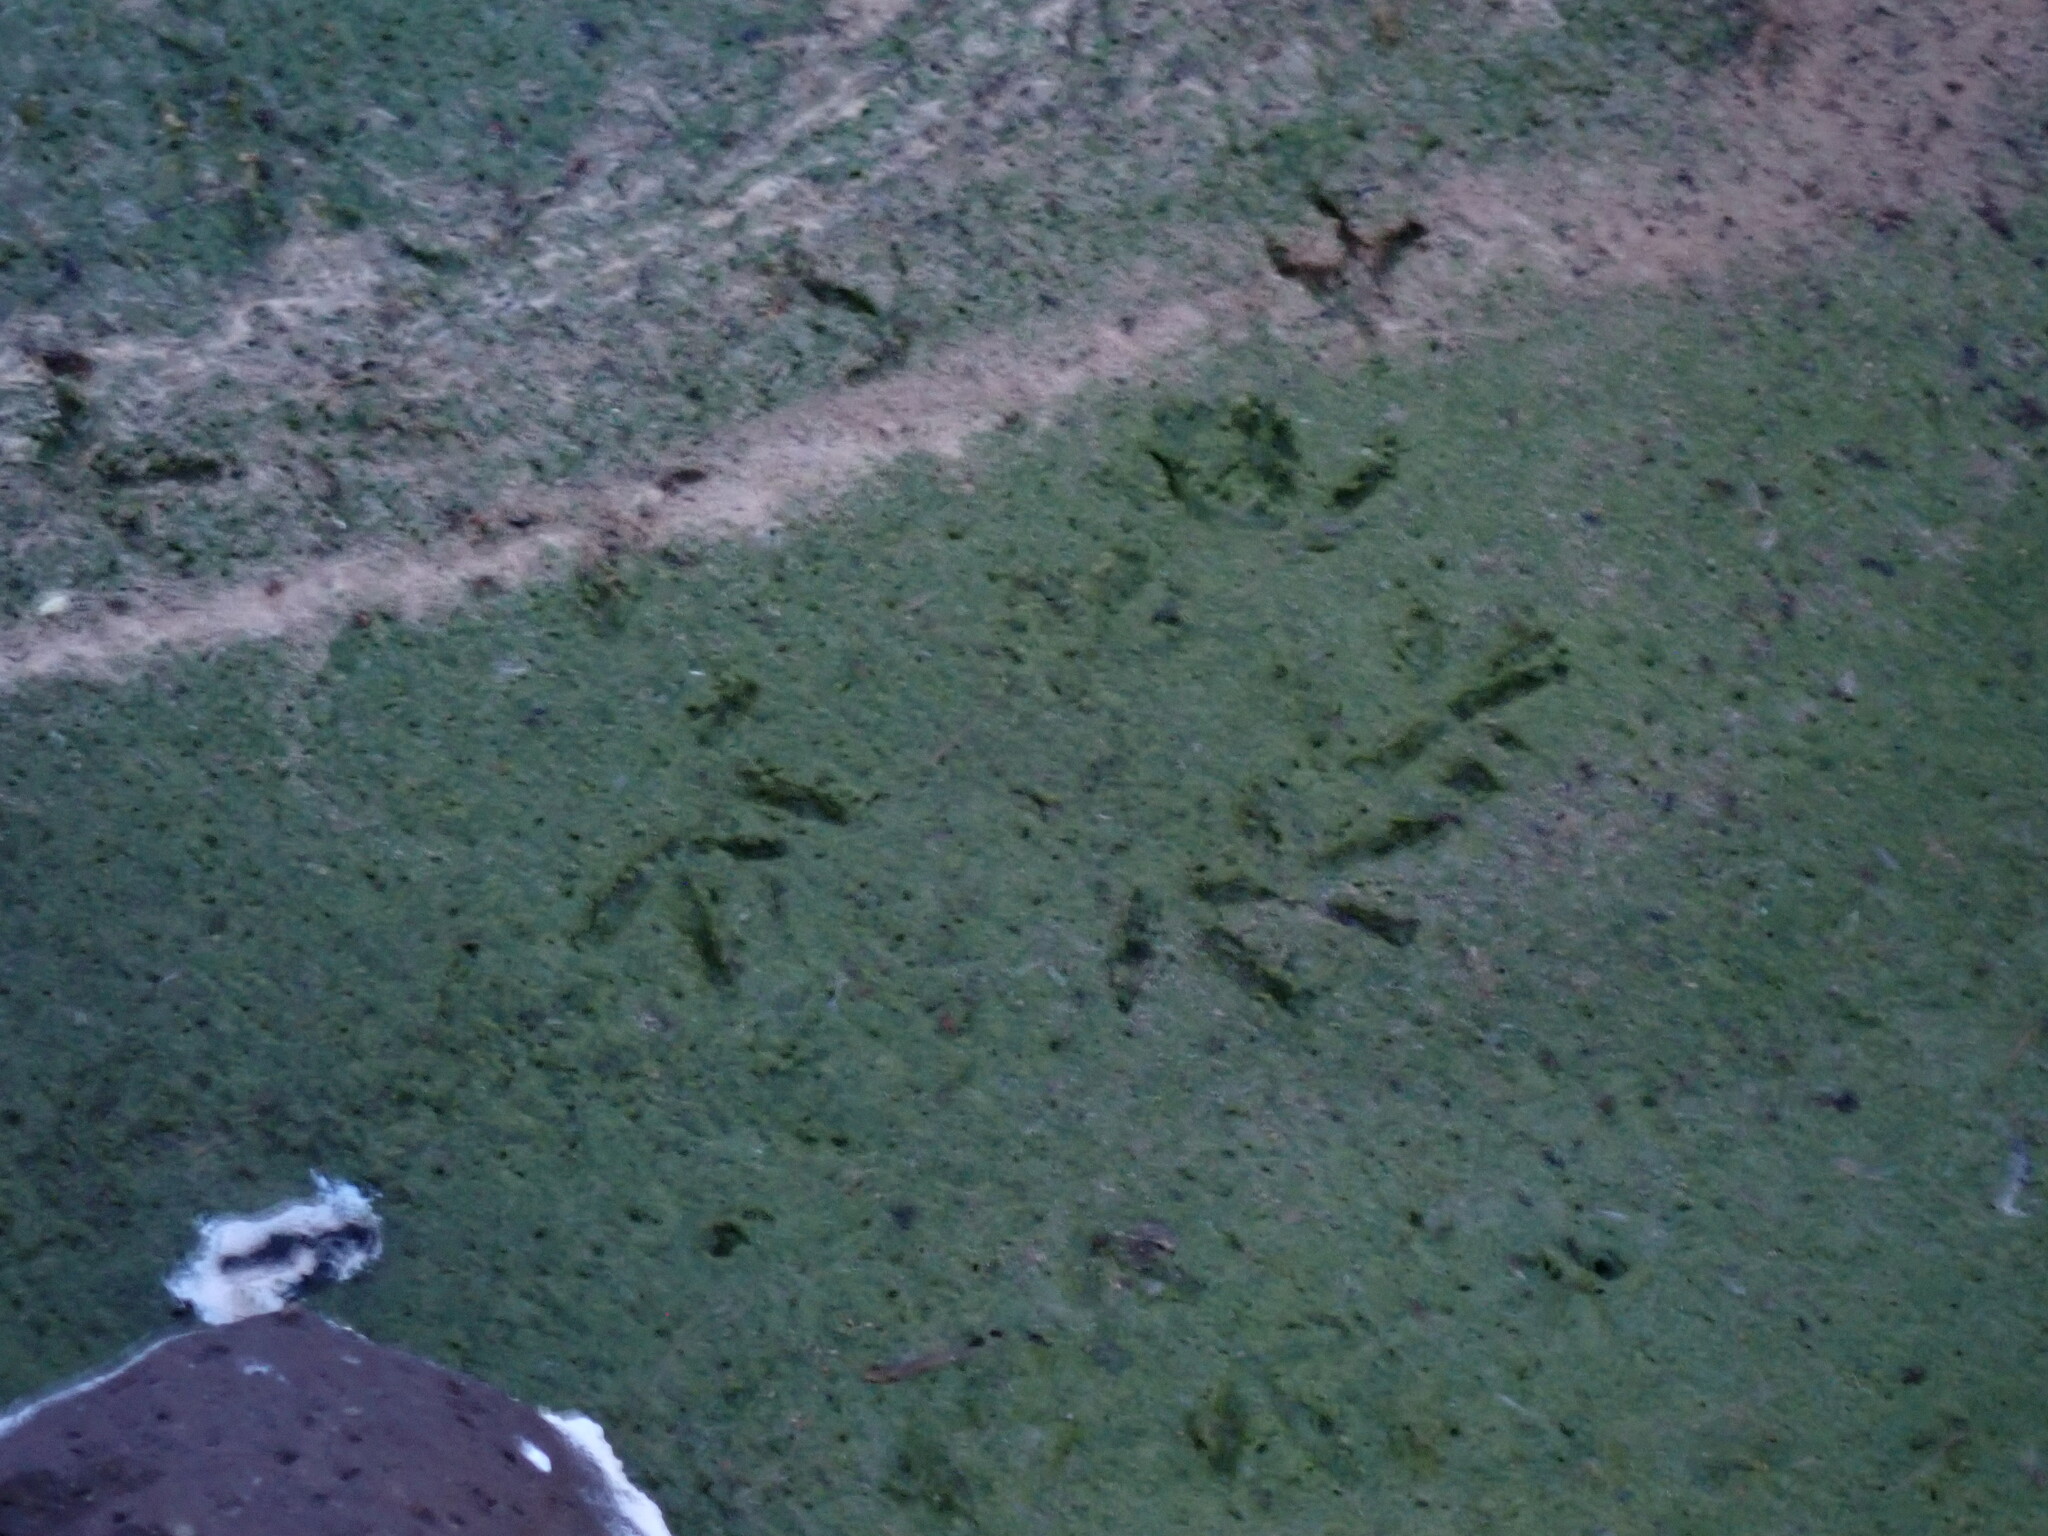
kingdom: Animalia
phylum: Chordata
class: Aves
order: Charadriiformes
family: Charadriidae
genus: Charadrius
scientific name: Charadrius vociferus
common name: Killdeer
